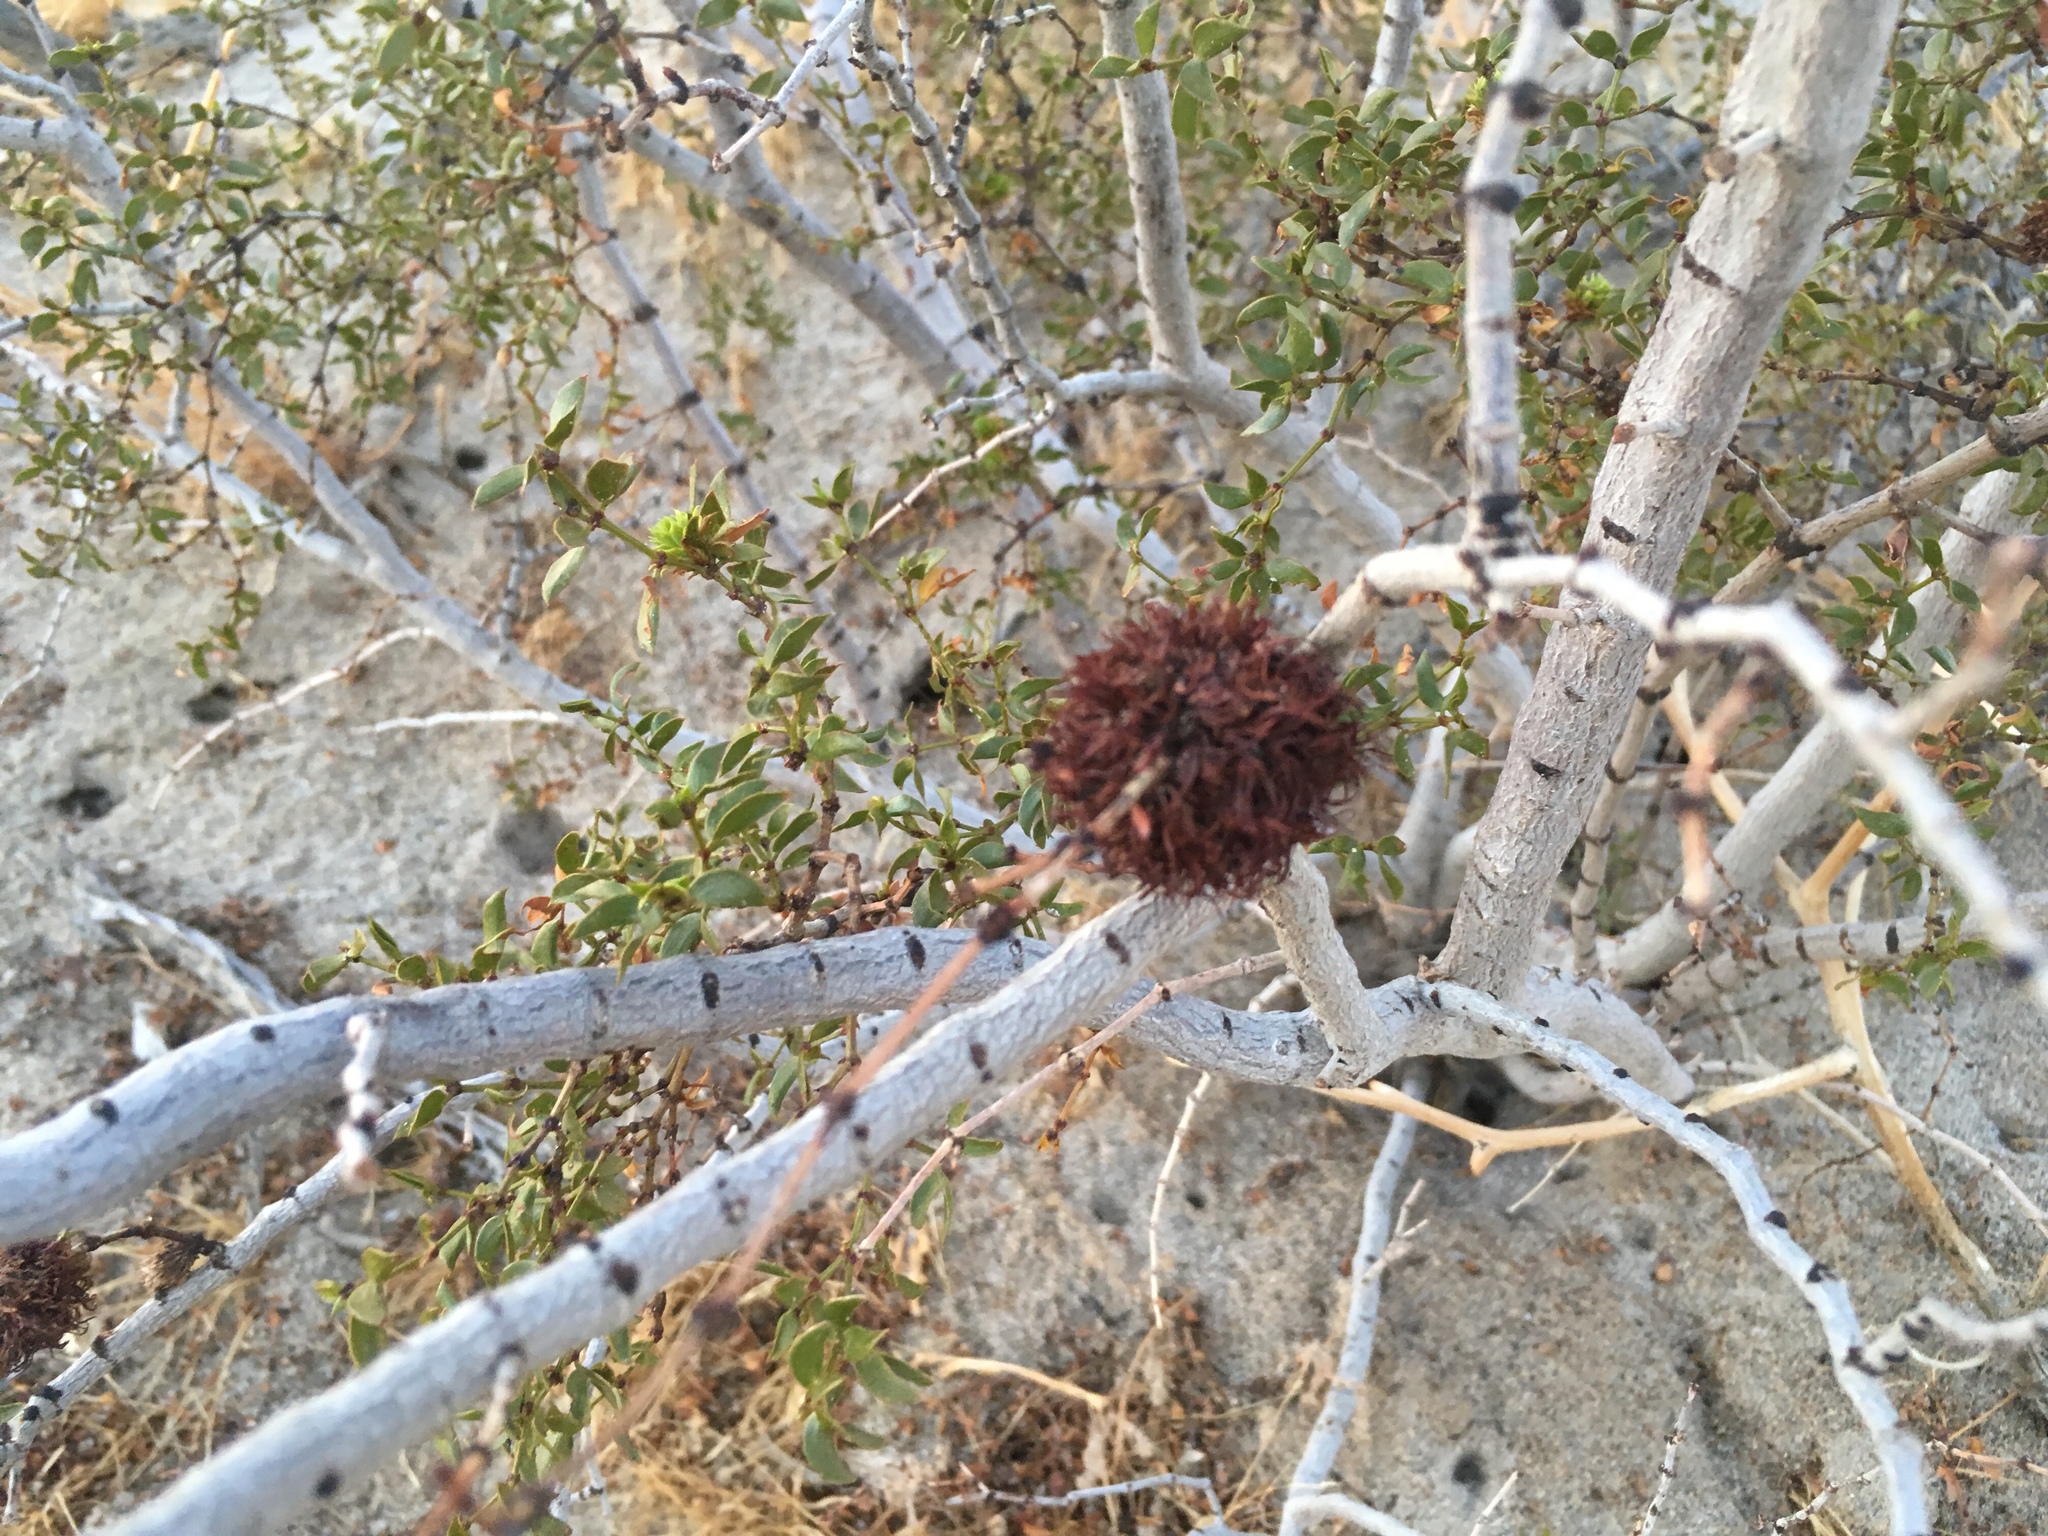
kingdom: Animalia
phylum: Arthropoda
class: Insecta
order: Diptera
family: Cecidomyiidae
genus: Asphondylia
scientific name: Asphondylia auripila
